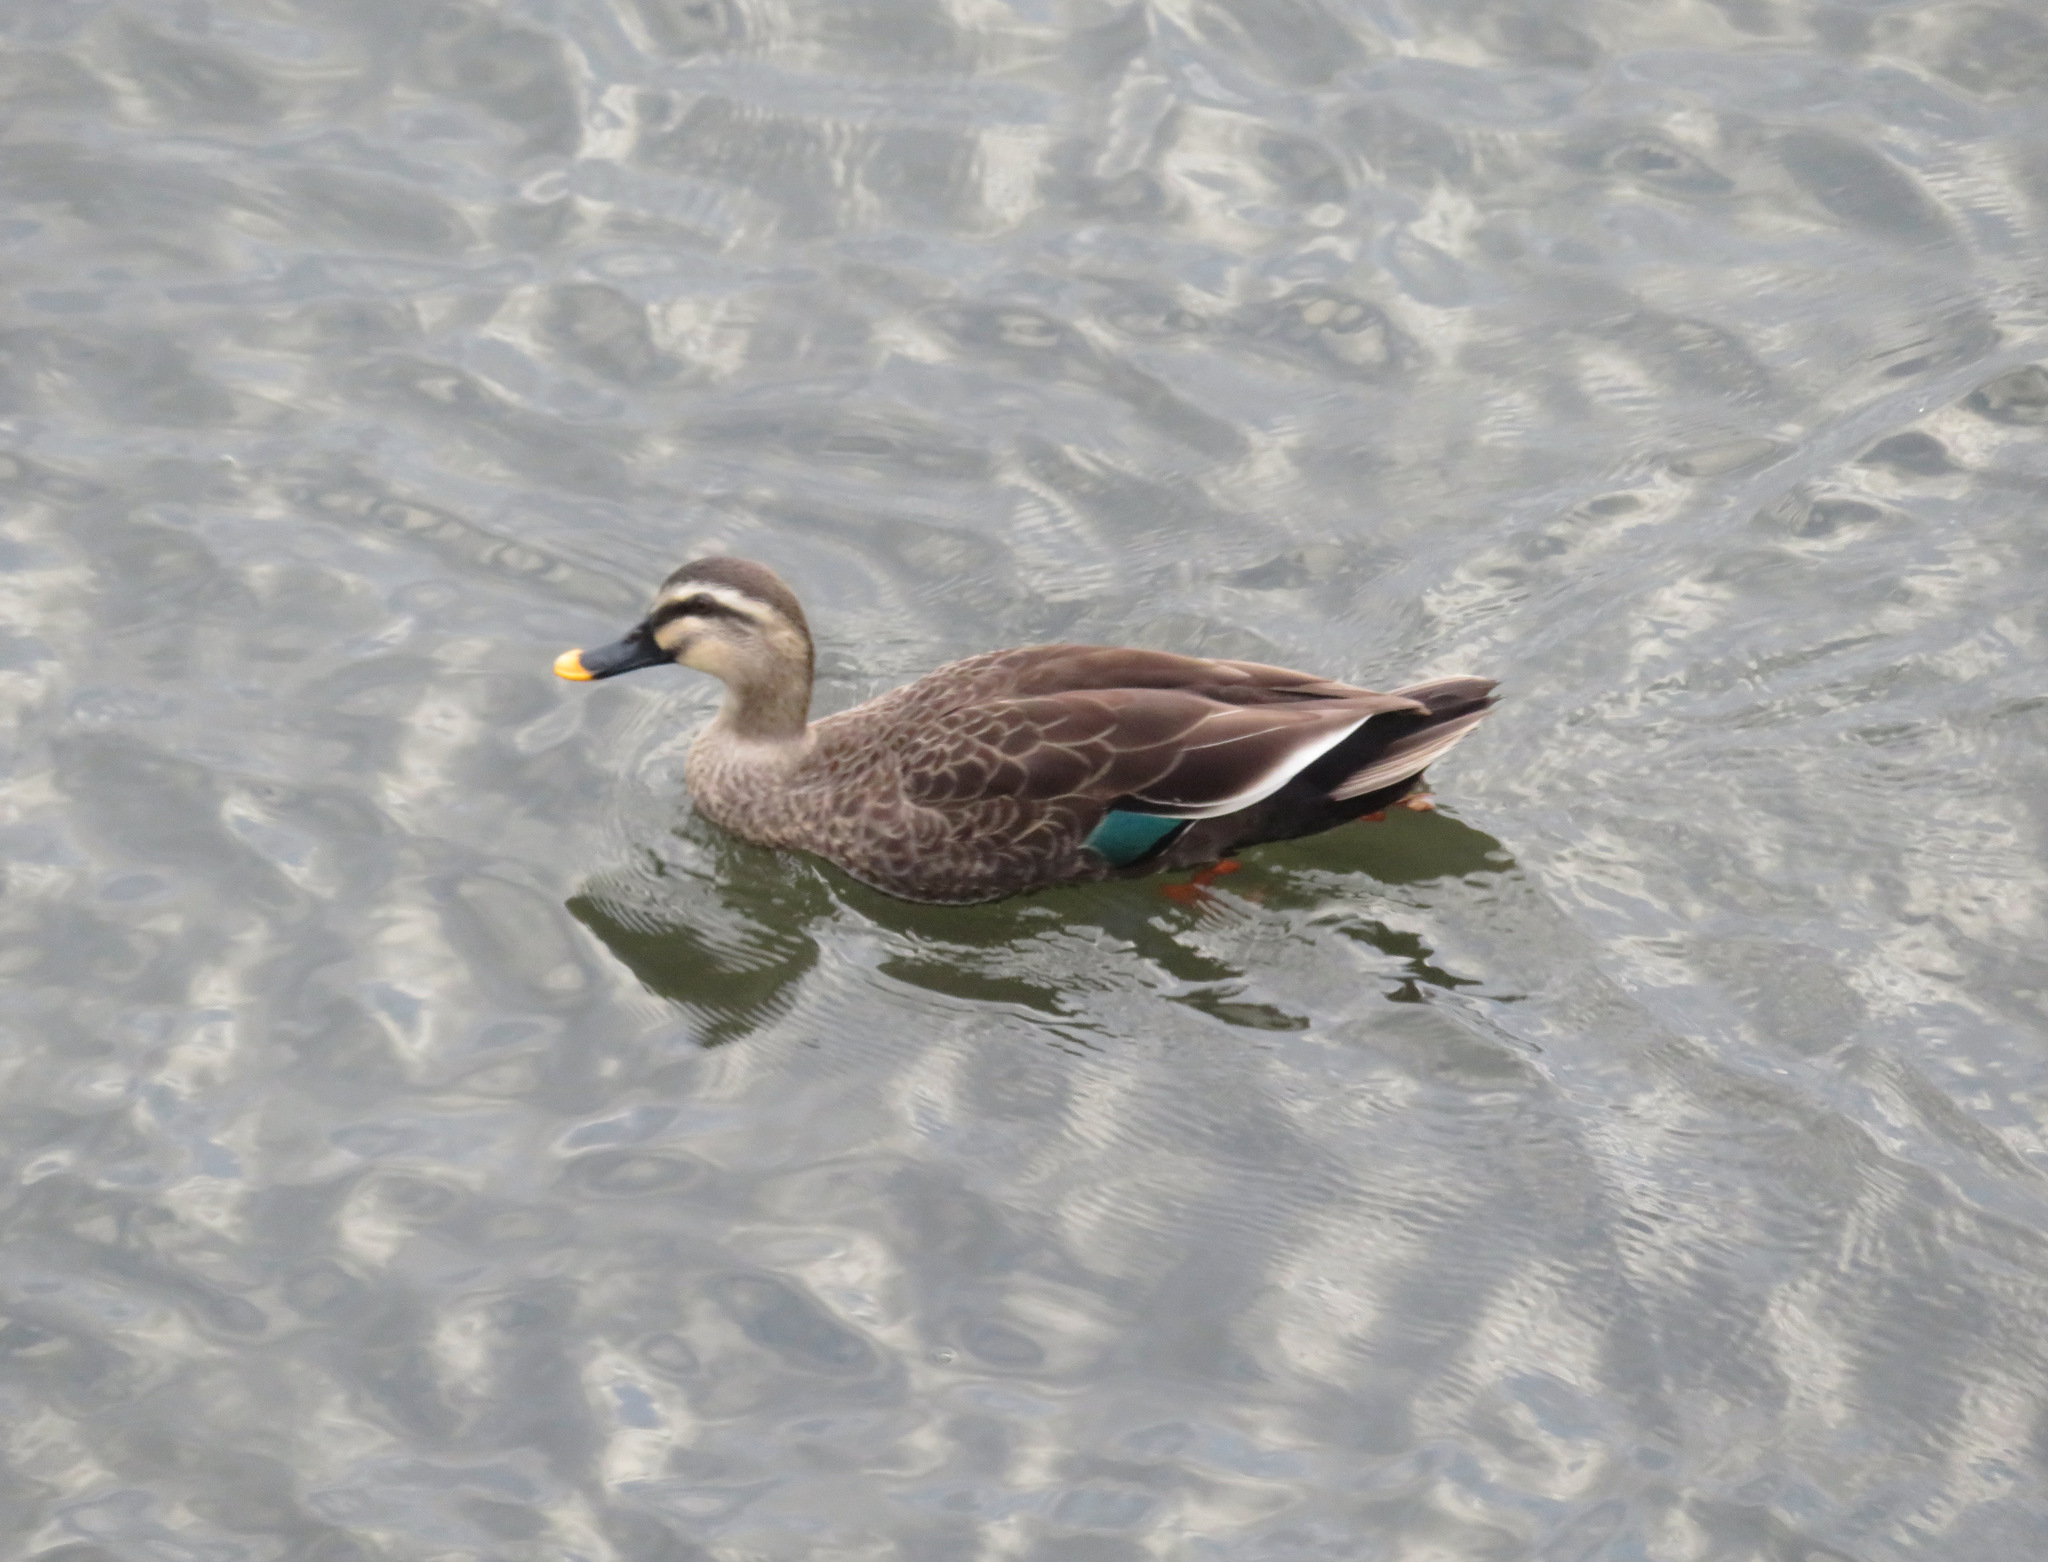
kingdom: Animalia
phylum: Chordata
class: Aves
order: Anseriformes
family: Anatidae
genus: Anas
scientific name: Anas zonorhyncha
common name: Eastern spot-billed duck
